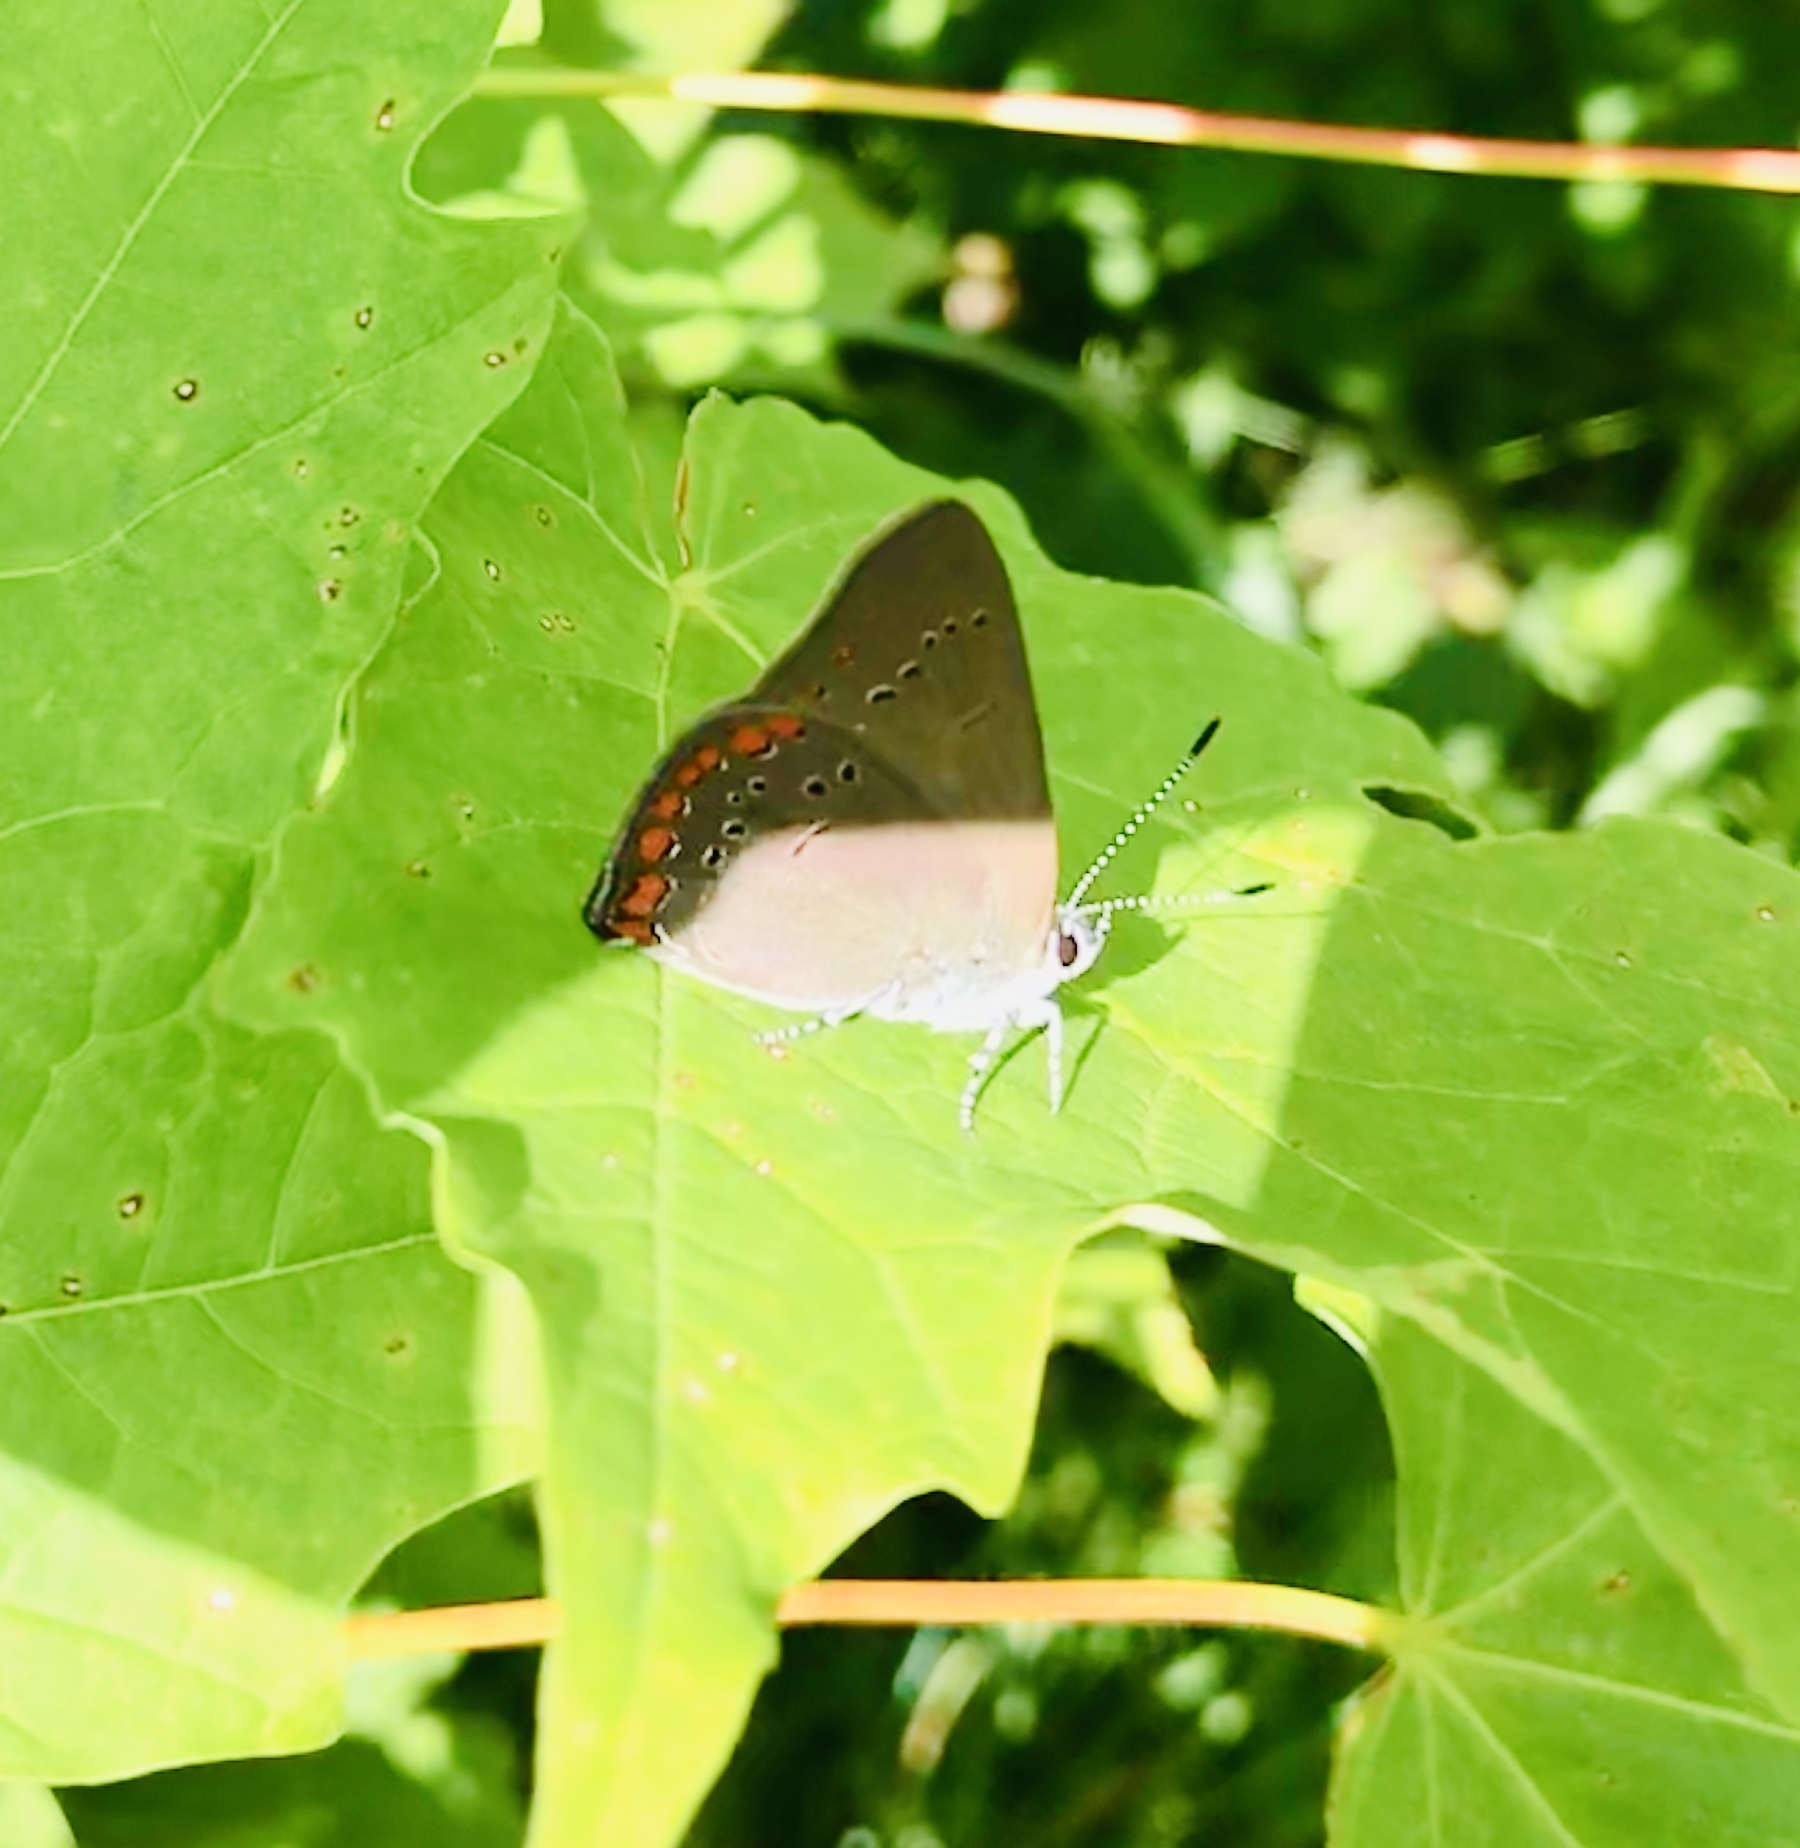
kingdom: Animalia
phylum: Arthropoda
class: Insecta
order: Lepidoptera
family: Lycaenidae
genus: Harkenclenus
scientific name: Harkenclenus titus
